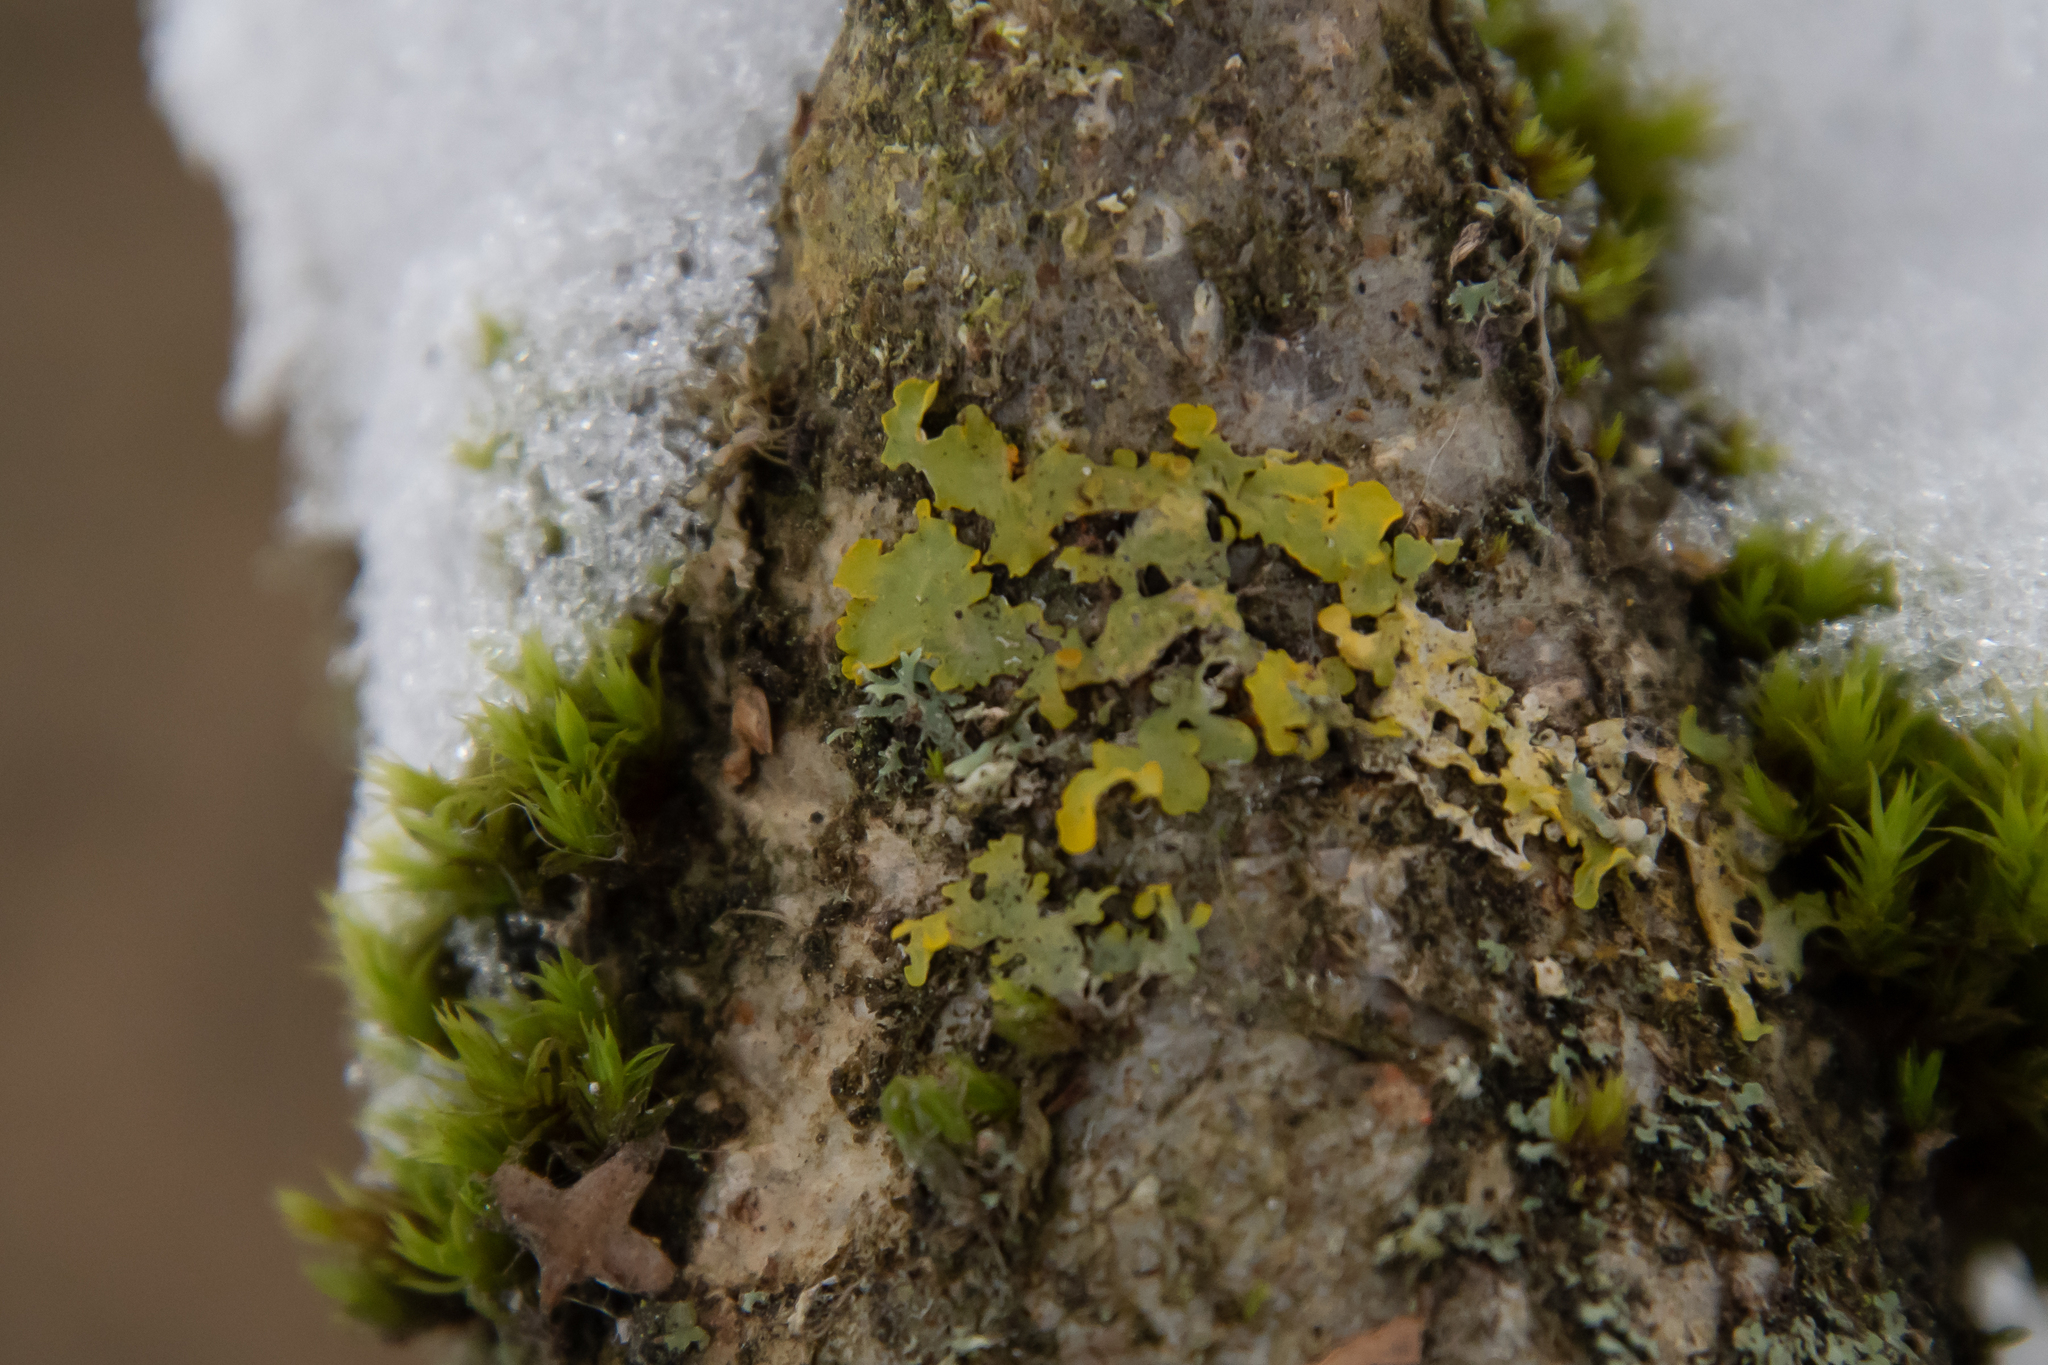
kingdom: Fungi
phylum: Ascomycota
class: Lecanoromycetes
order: Teloschistales
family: Teloschistaceae
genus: Xanthoria
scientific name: Xanthoria parietina
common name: Common orange lichen
